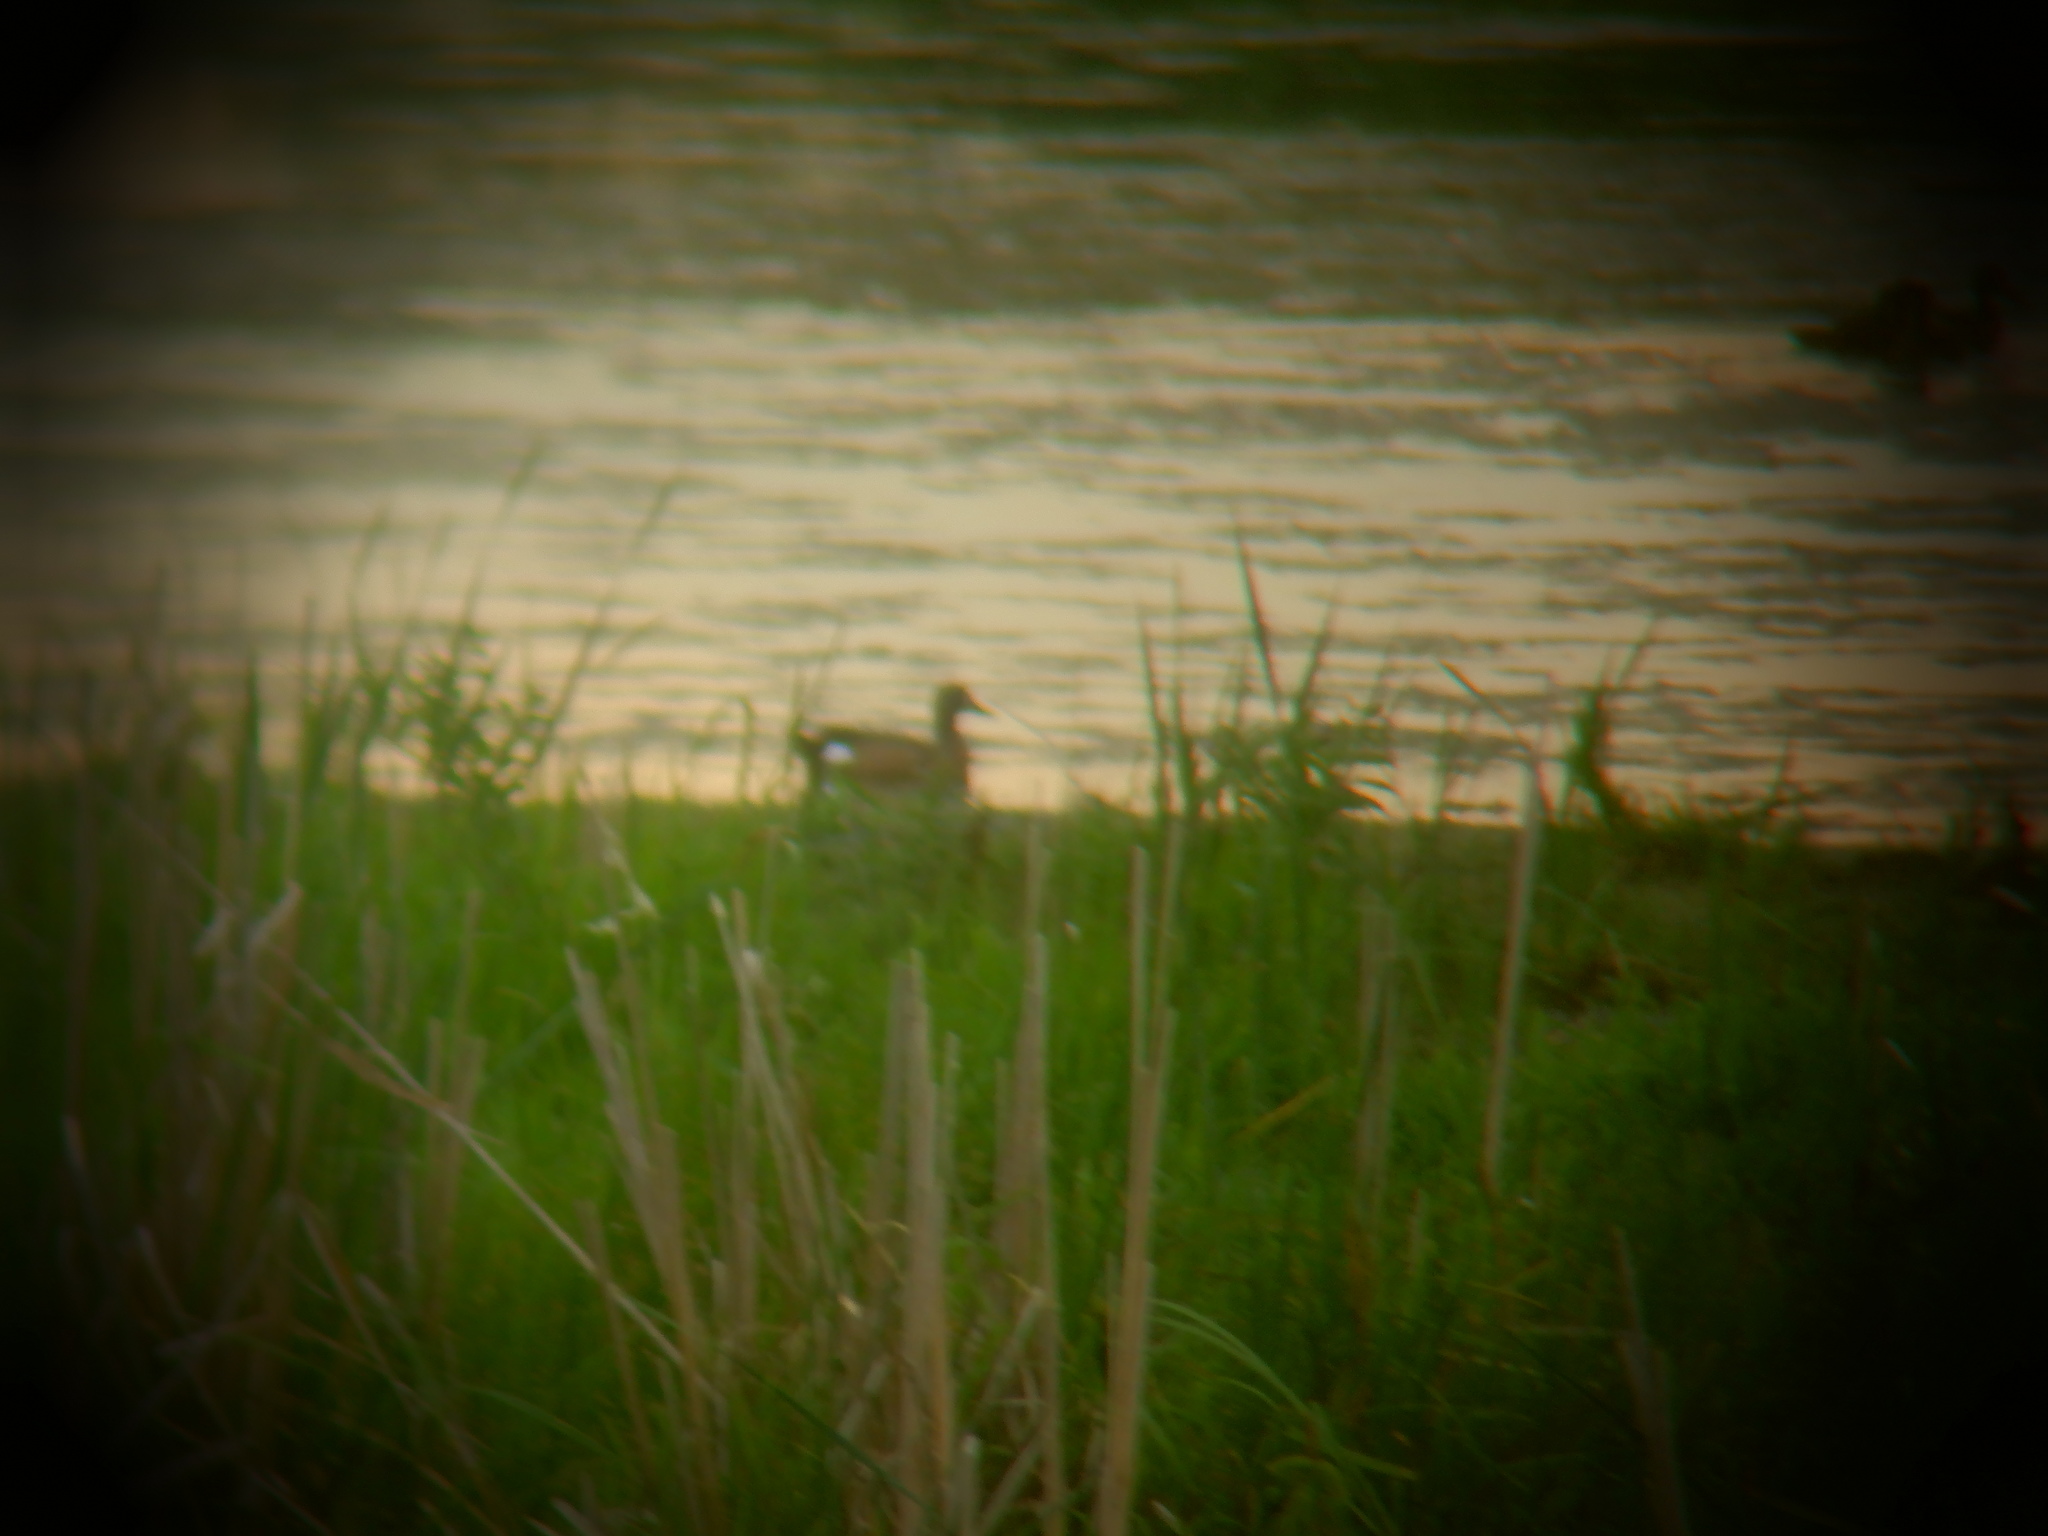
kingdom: Animalia
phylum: Chordata
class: Aves
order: Anseriformes
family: Anatidae
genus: Spatula
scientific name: Spatula discors
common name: Blue-winged teal
